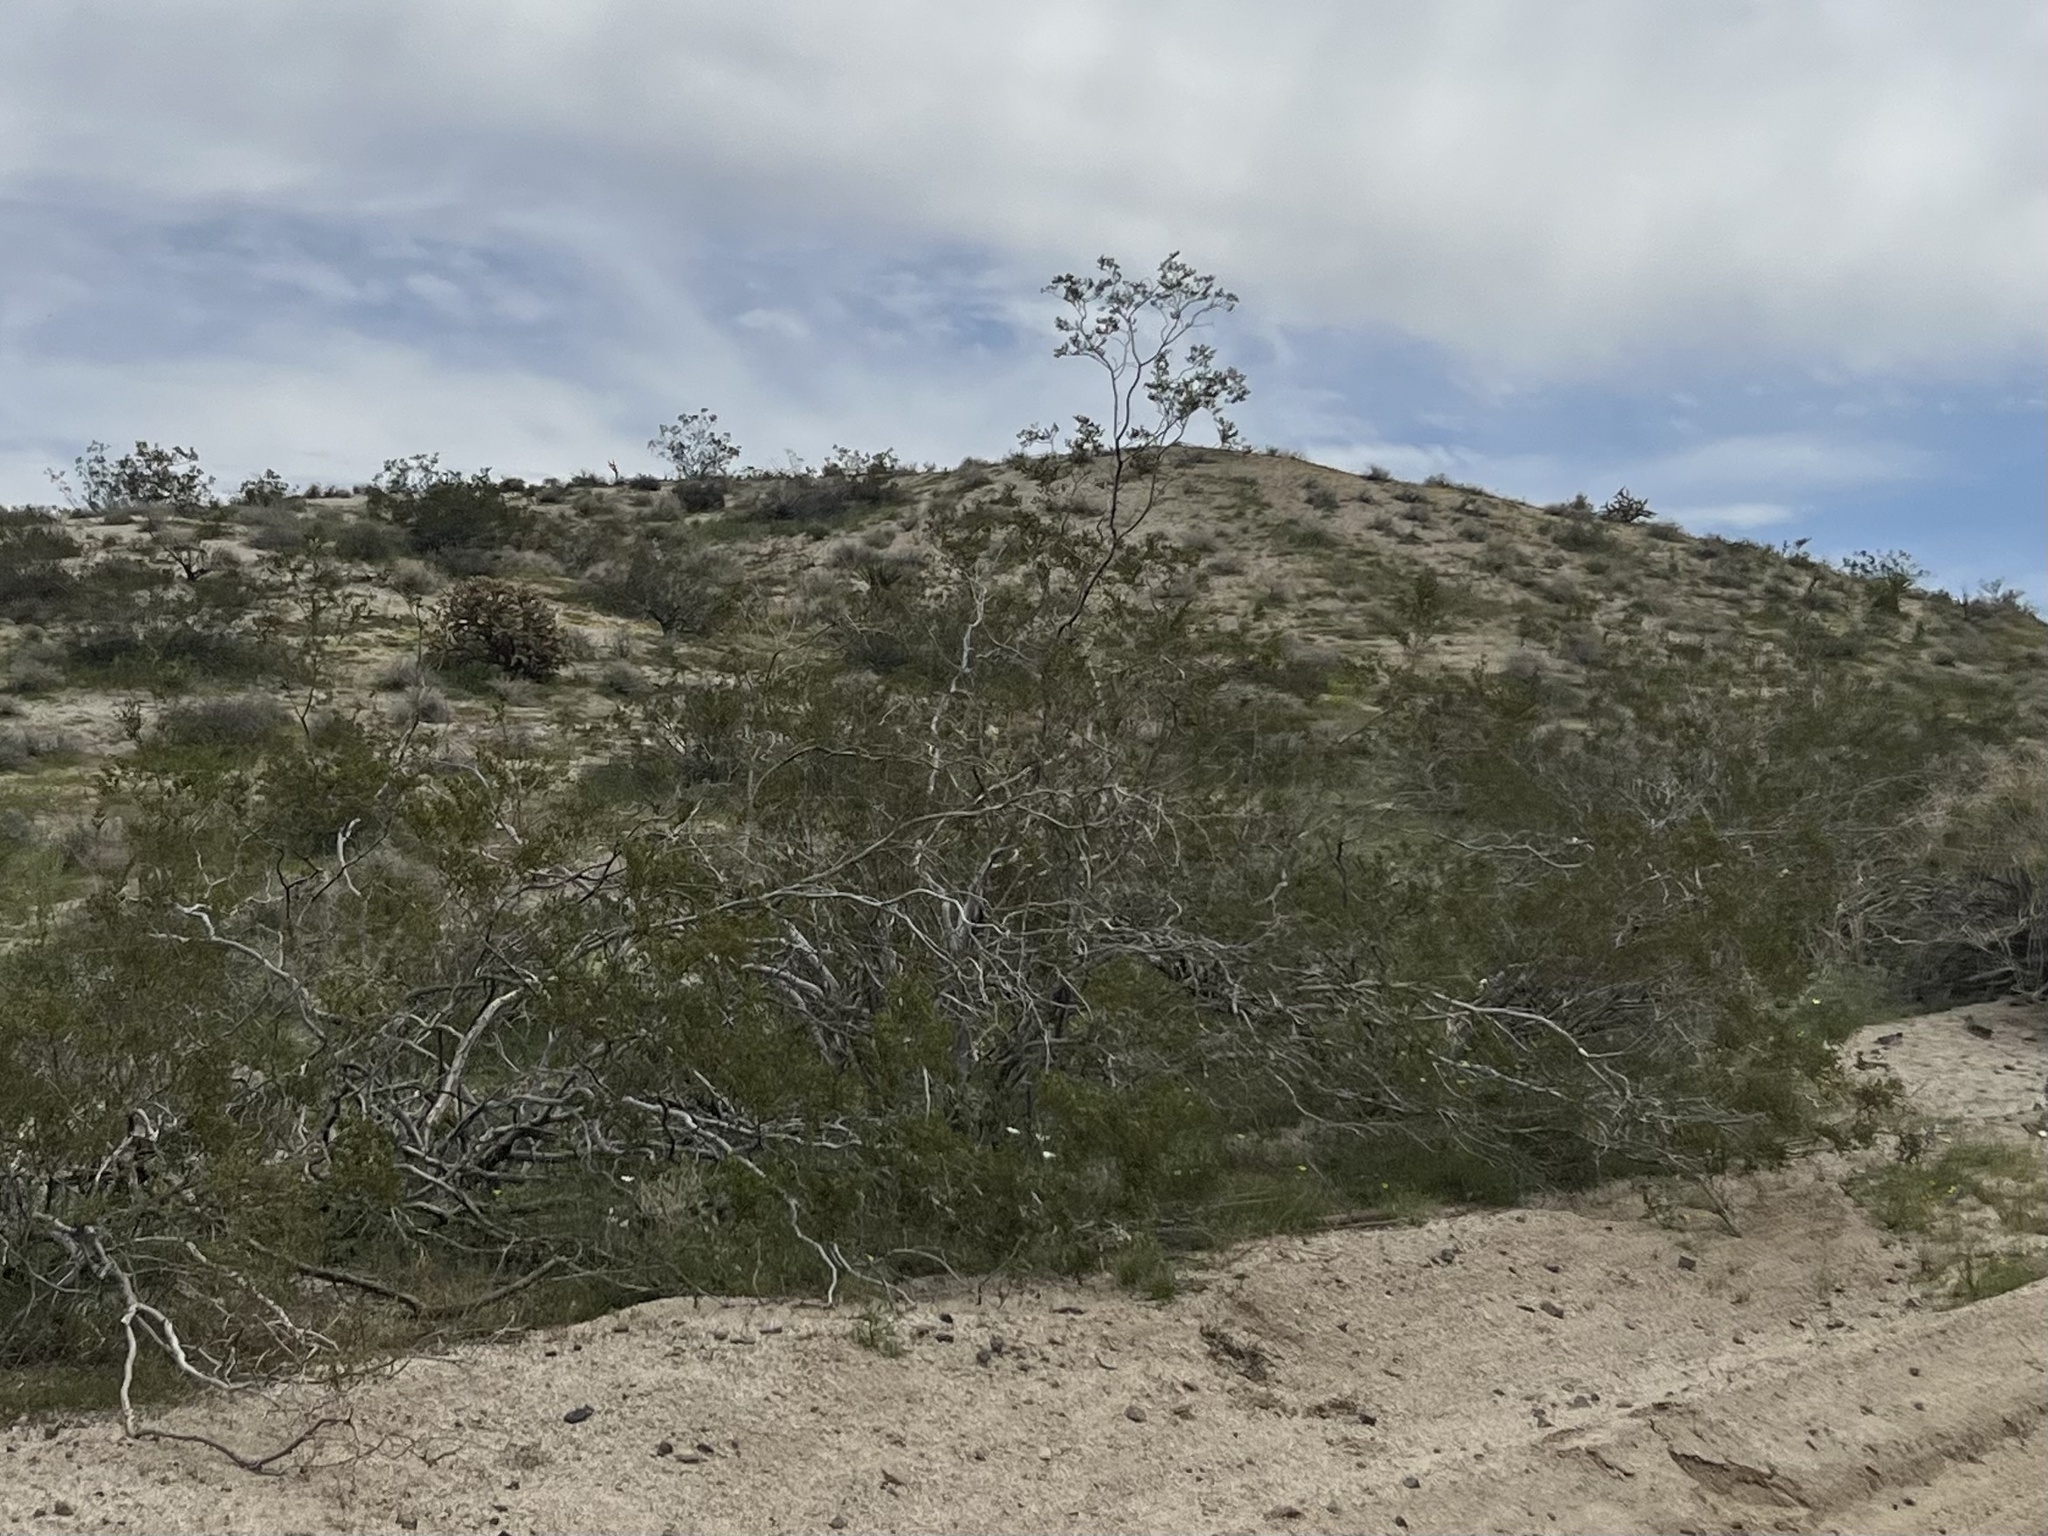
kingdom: Plantae
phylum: Tracheophyta
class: Magnoliopsida
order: Zygophyllales
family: Zygophyllaceae
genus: Larrea
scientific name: Larrea tridentata
